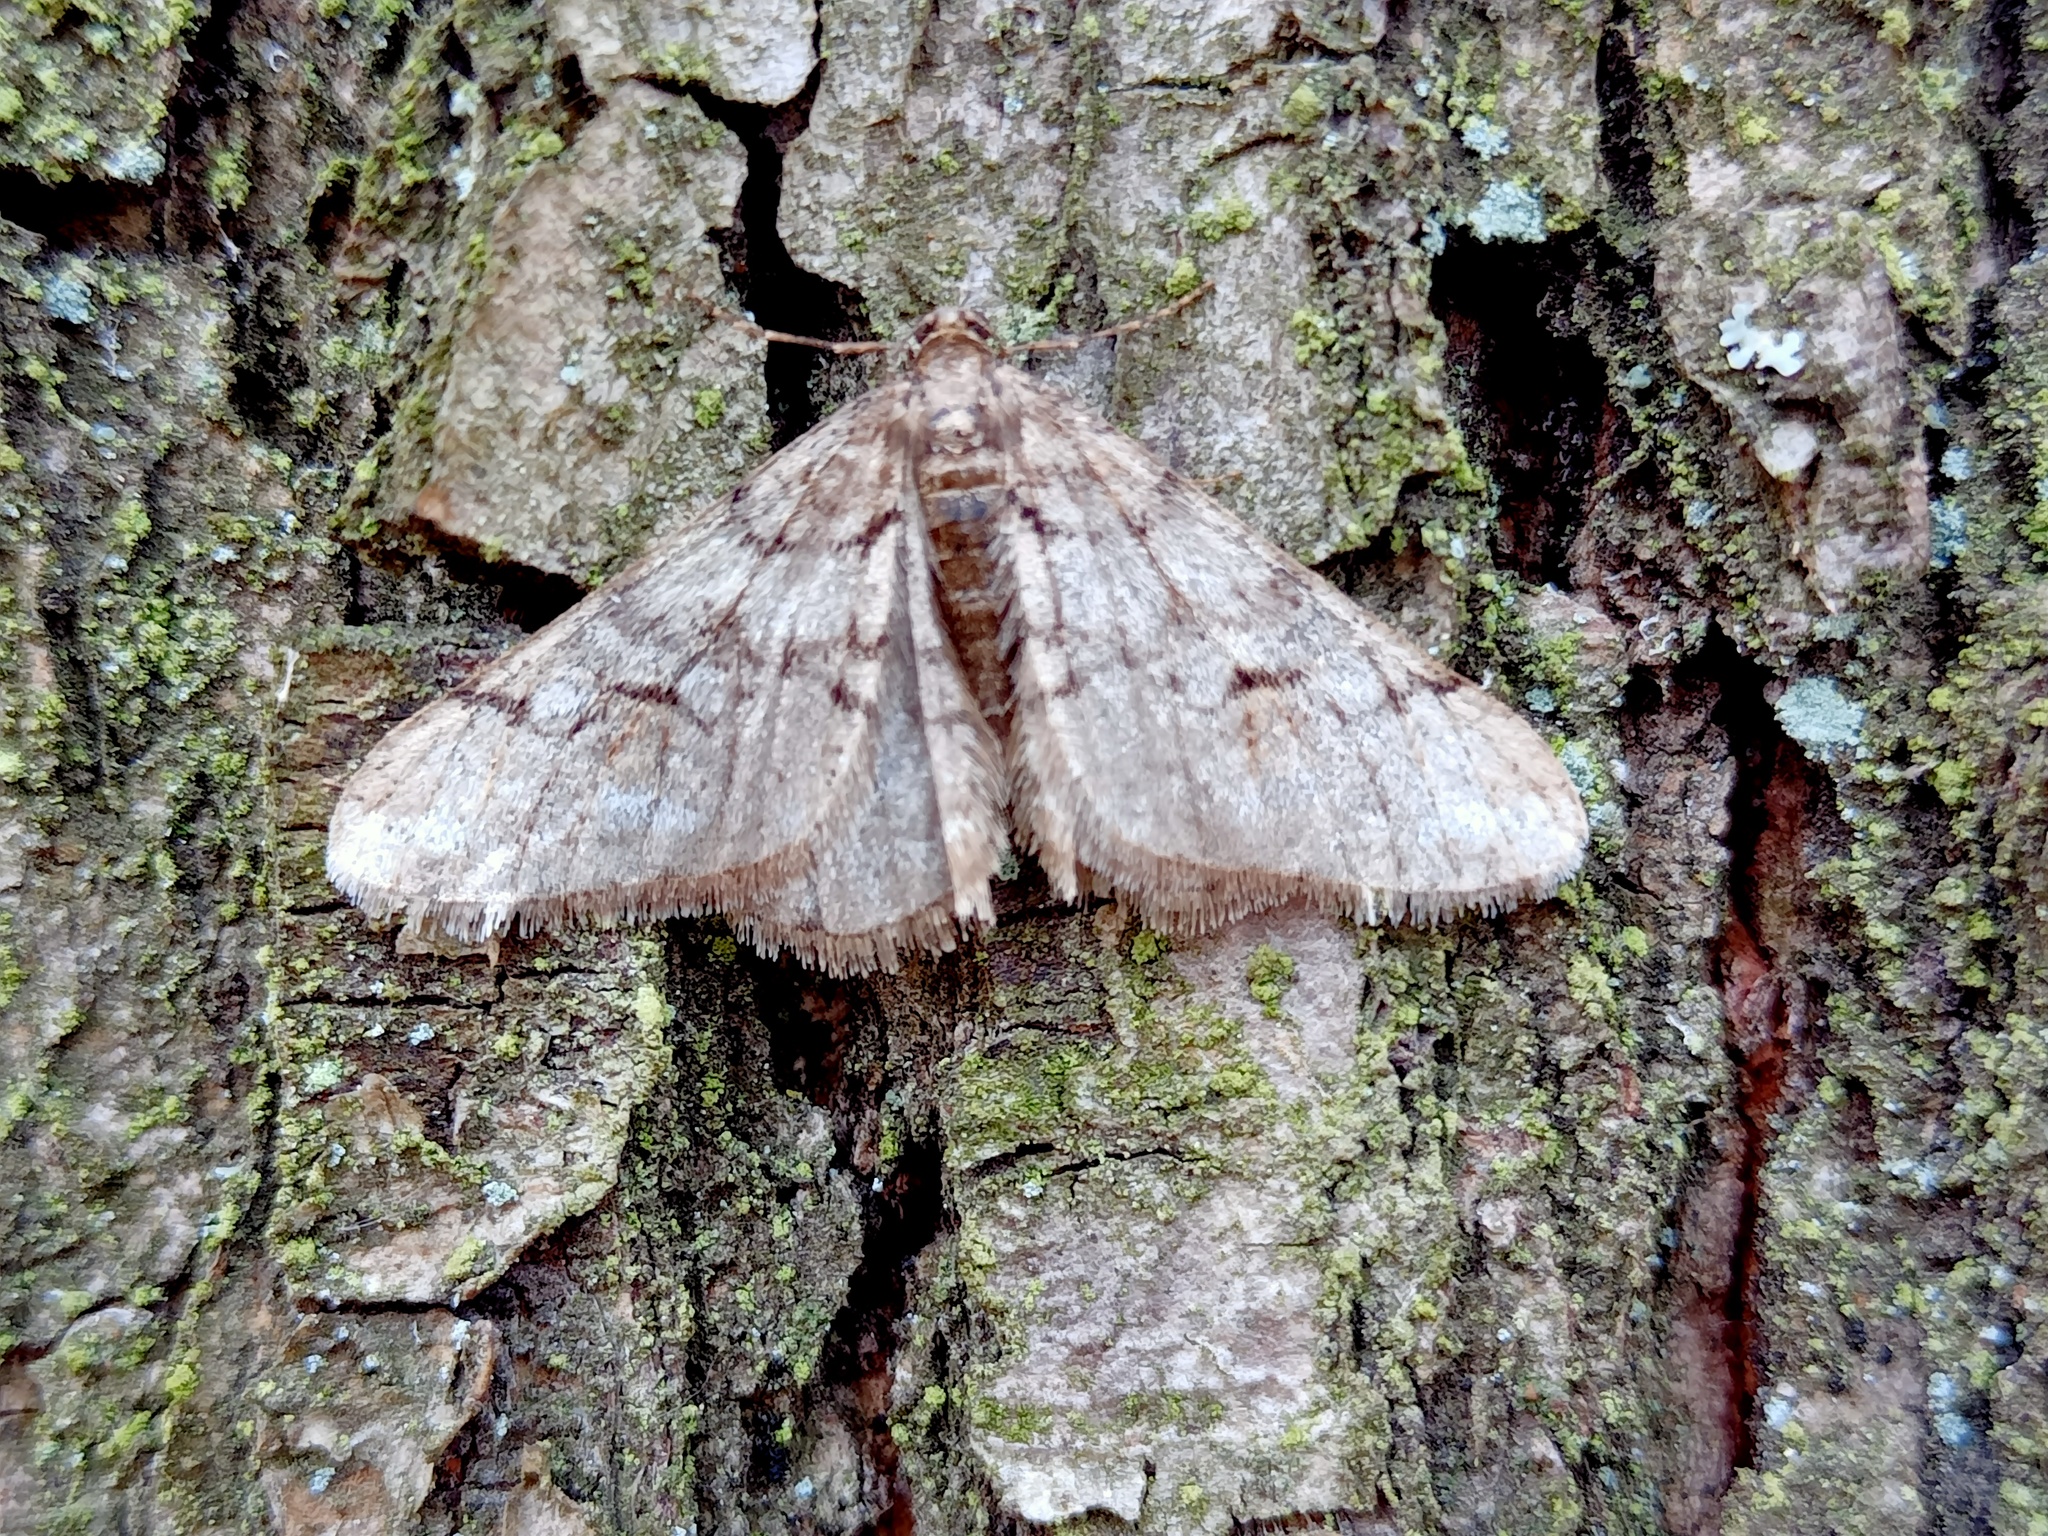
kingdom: Animalia
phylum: Arthropoda
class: Insecta
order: Lepidoptera
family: Geometridae
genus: Agriopis
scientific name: Agriopis leucophaearia
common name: Spring usher
